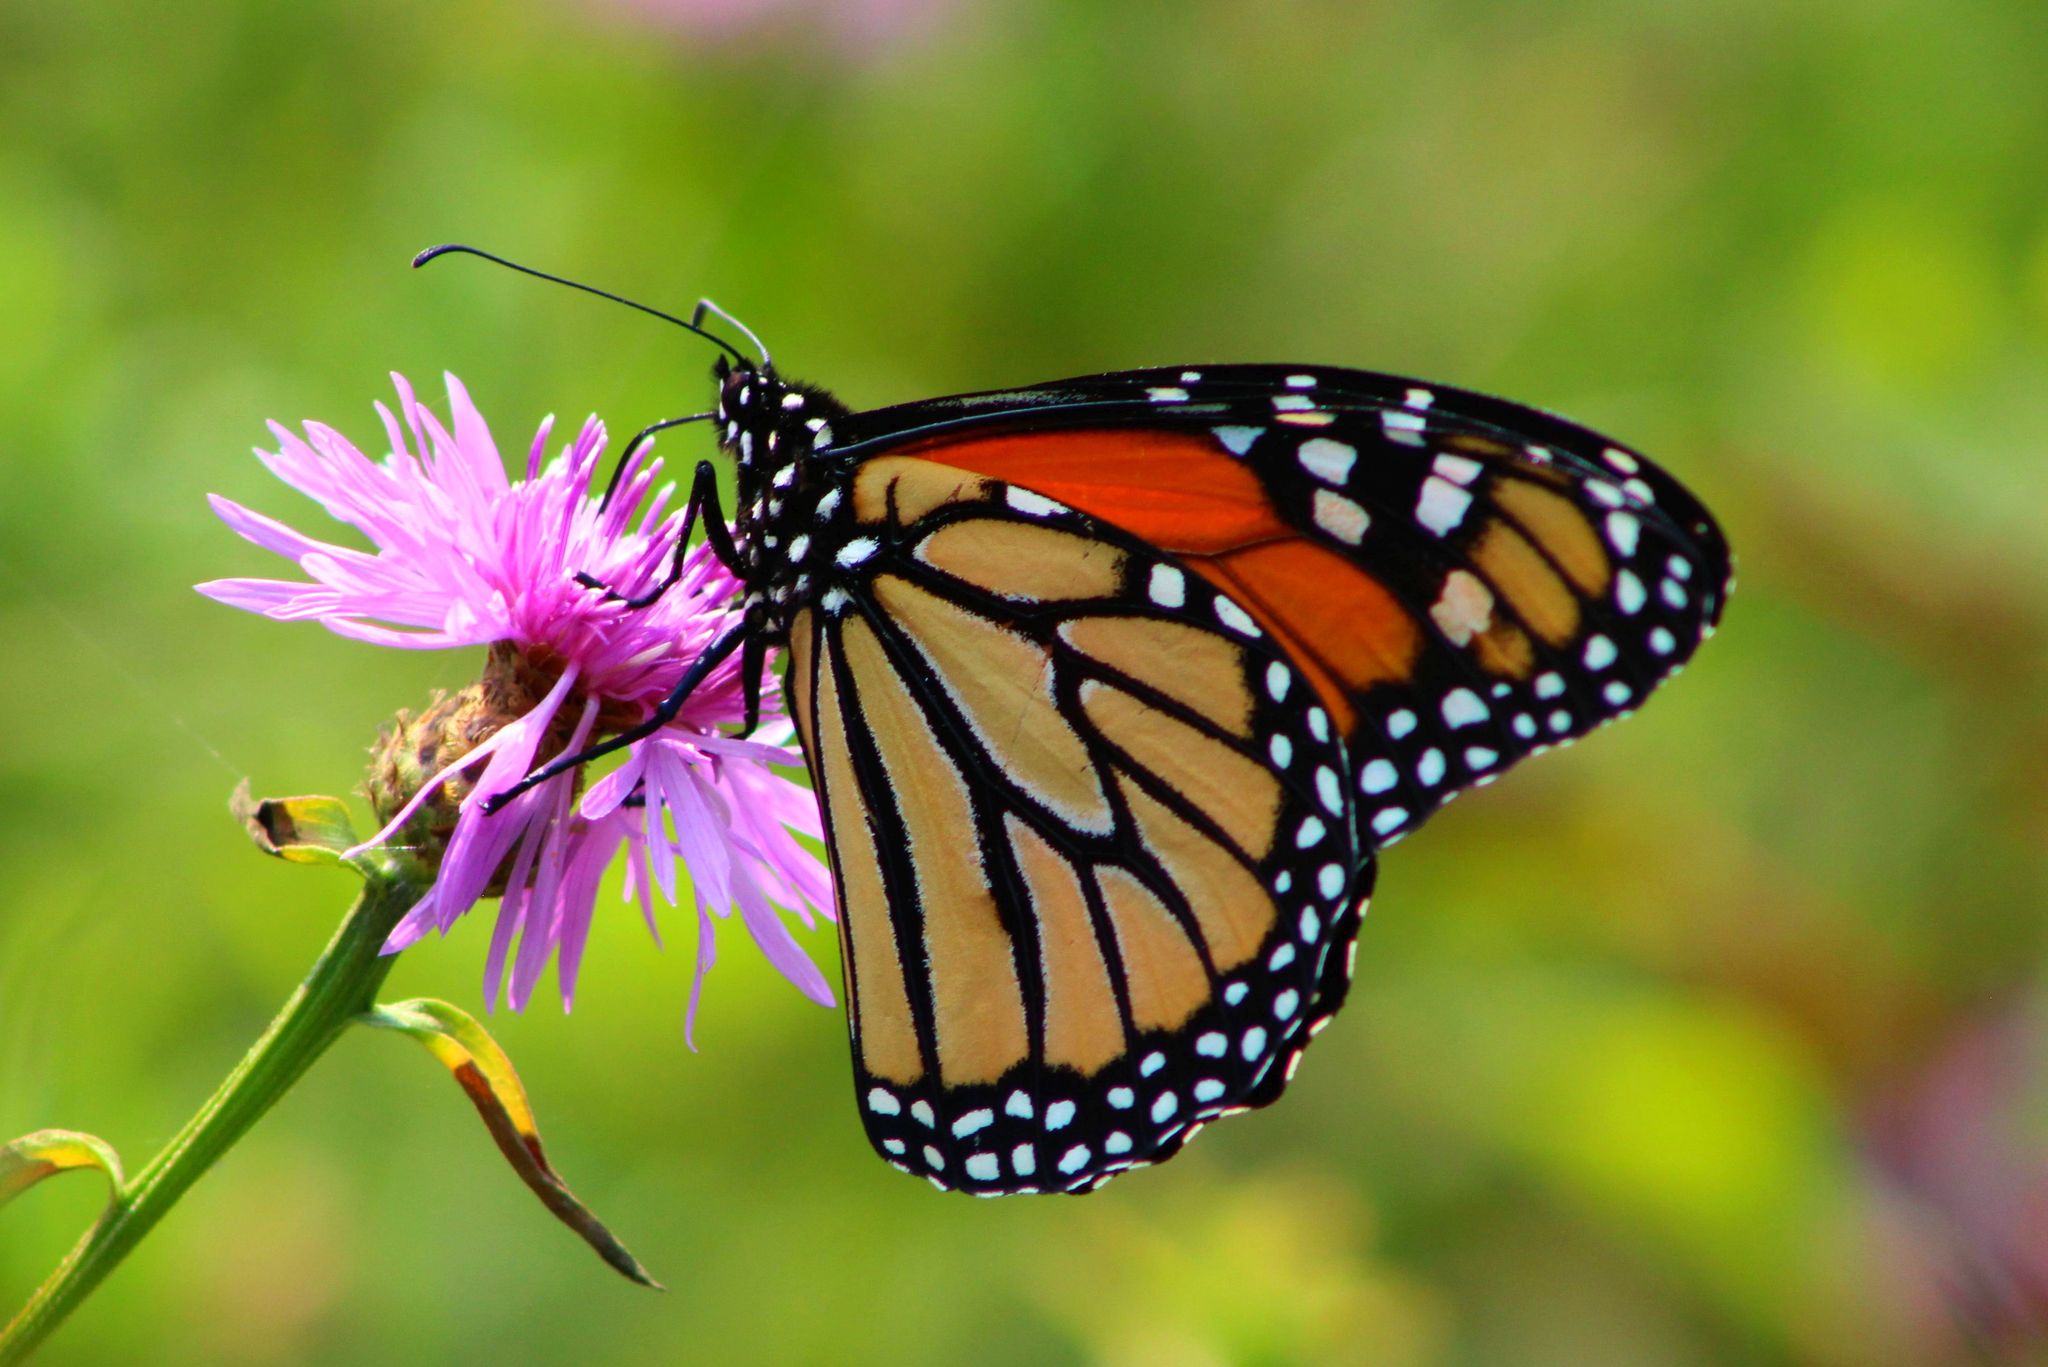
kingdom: Animalia
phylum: Arthropoda
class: Insecta
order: Lepidoptera
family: Nymphalidae
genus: Danaus
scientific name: Danaus plexippus
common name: Monarch
